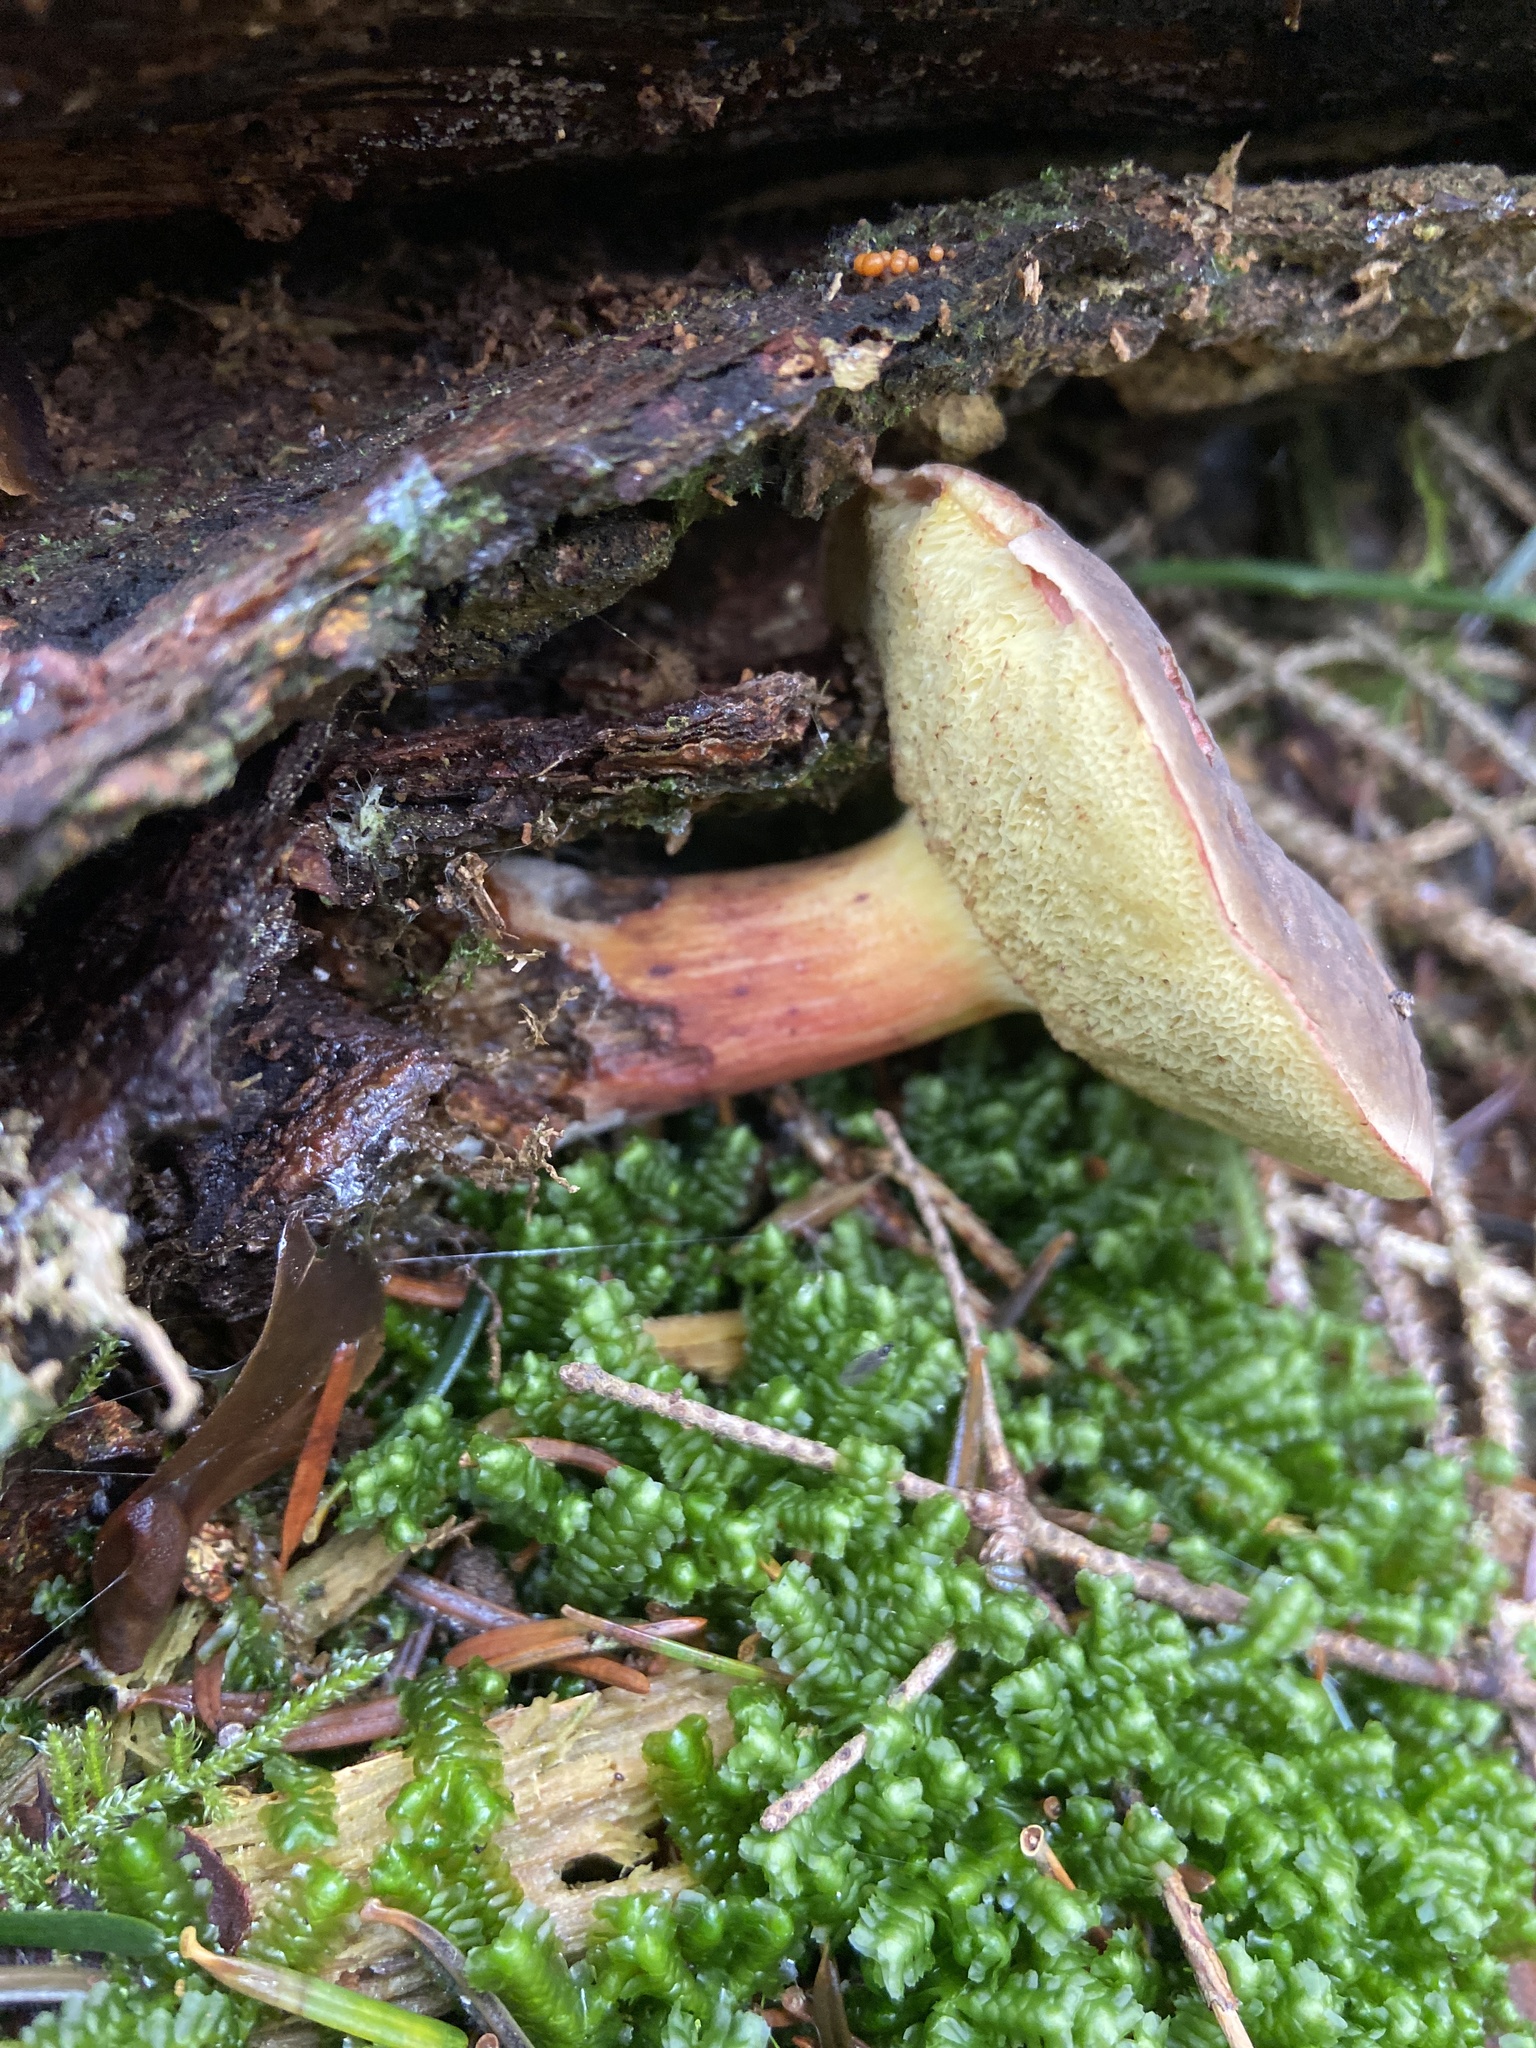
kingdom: Fungi
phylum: Basidiomycota
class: Agaricomycetes
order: Boletales
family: Boletaceae
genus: Xerocomellus
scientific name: Xerocomellus chrysenteron
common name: Red-cracking bolete
